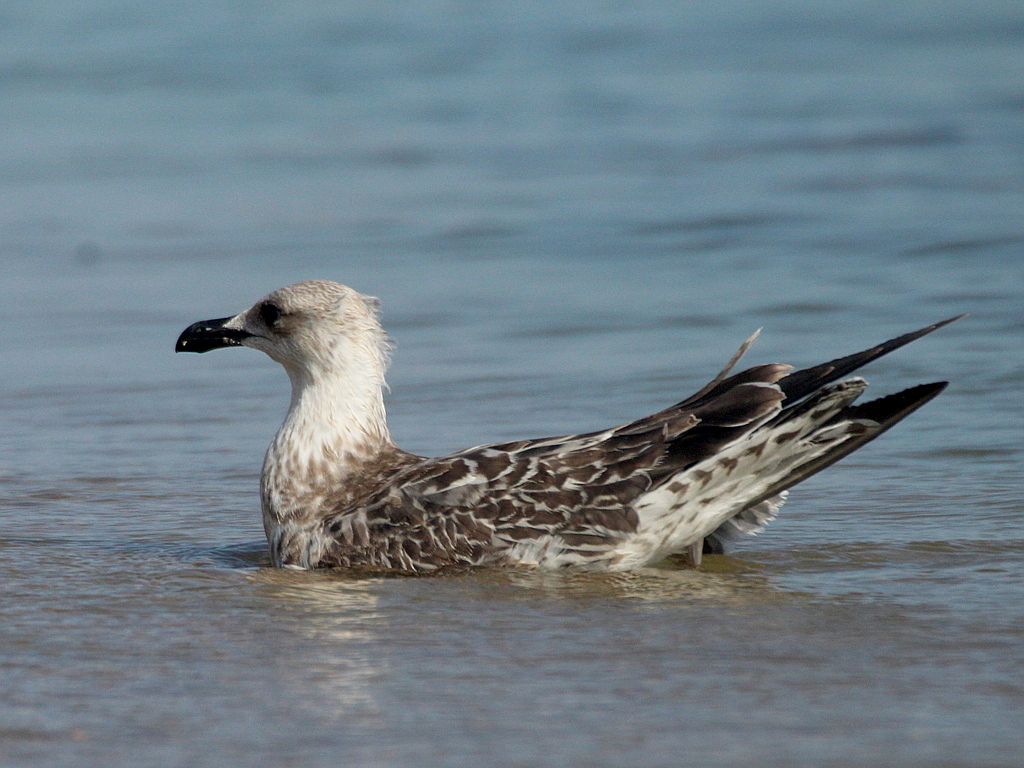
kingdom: Animalia
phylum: Chordata
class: Aves
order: Charadriiformes
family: Laridae
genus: Larus
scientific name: Larus michahellis
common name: Yellow-legged gull
